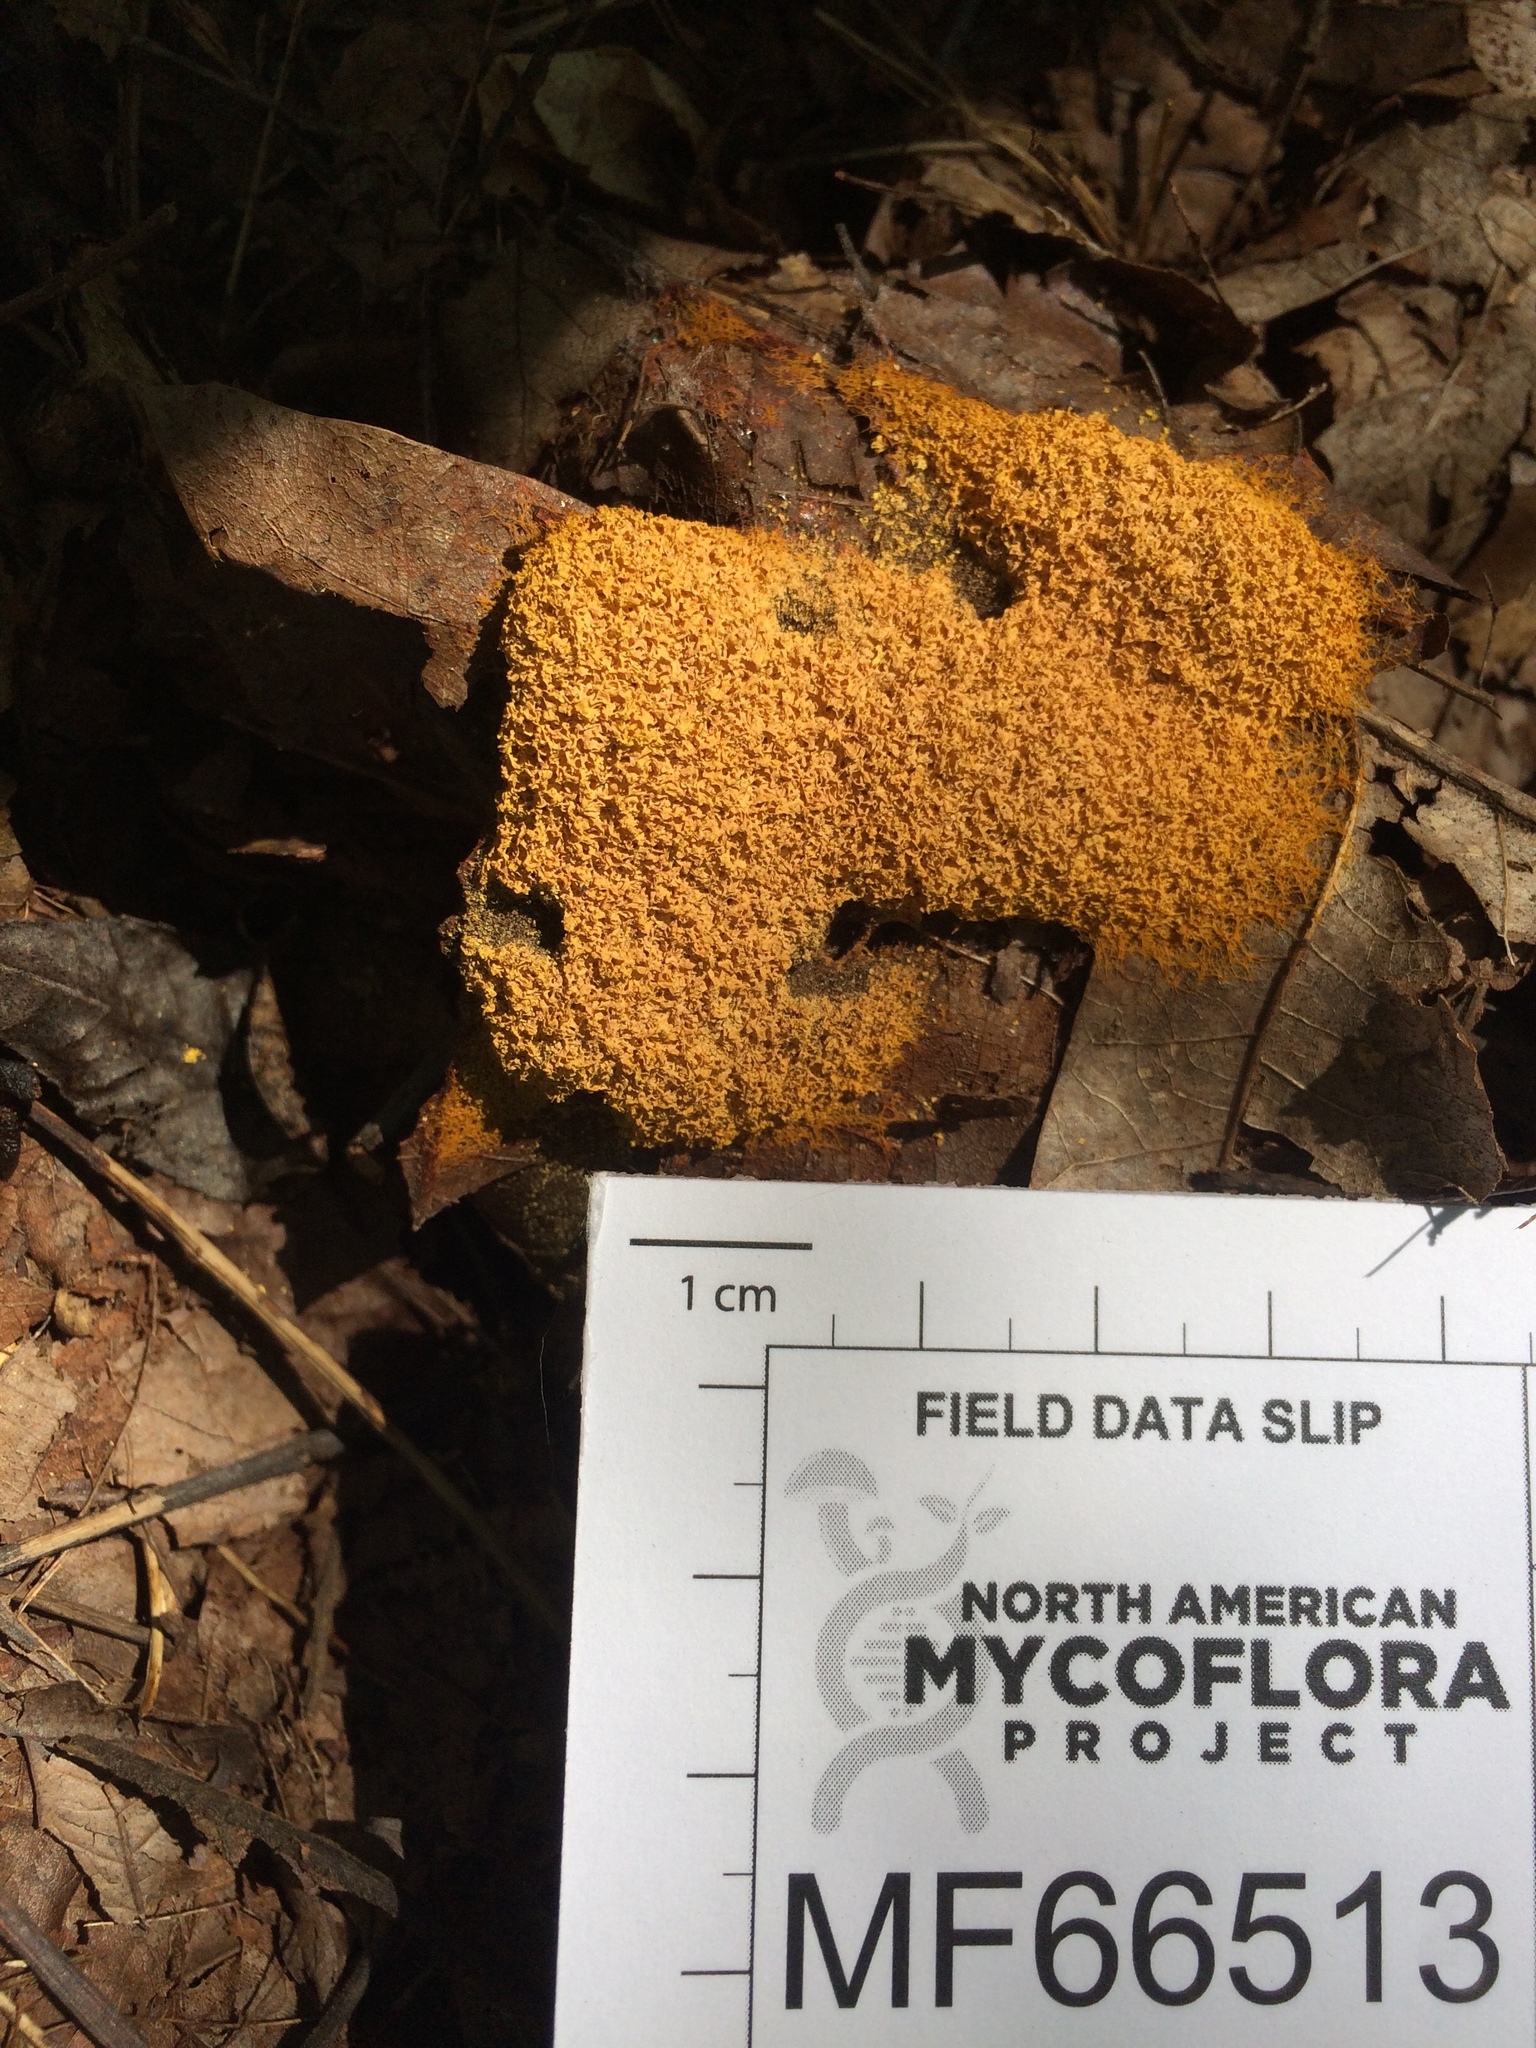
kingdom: Protozoa
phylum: Mycetozoa
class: Myxomycetes
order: Physarales
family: Physaraceae
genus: Fuligo
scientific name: Fuligo septica
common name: Dog vomit slime mold
